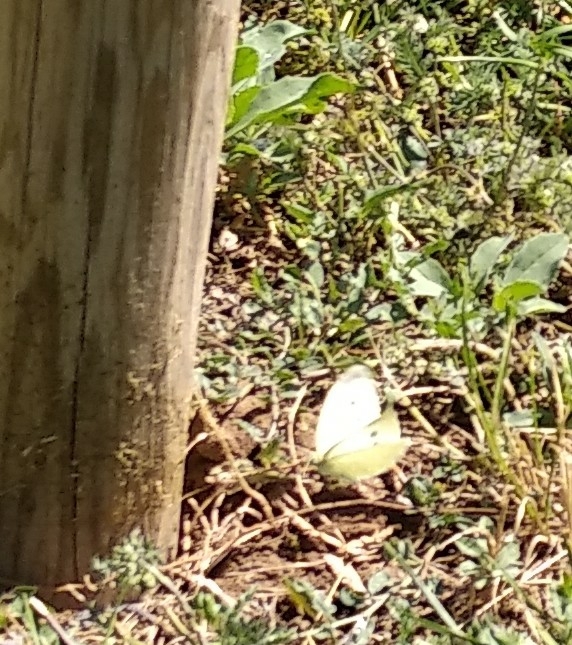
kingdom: Animalia
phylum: Arthropoda
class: Insecta
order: Lepidoptera
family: Pieridae
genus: Pieris
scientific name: Pieris rapae
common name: Small white
